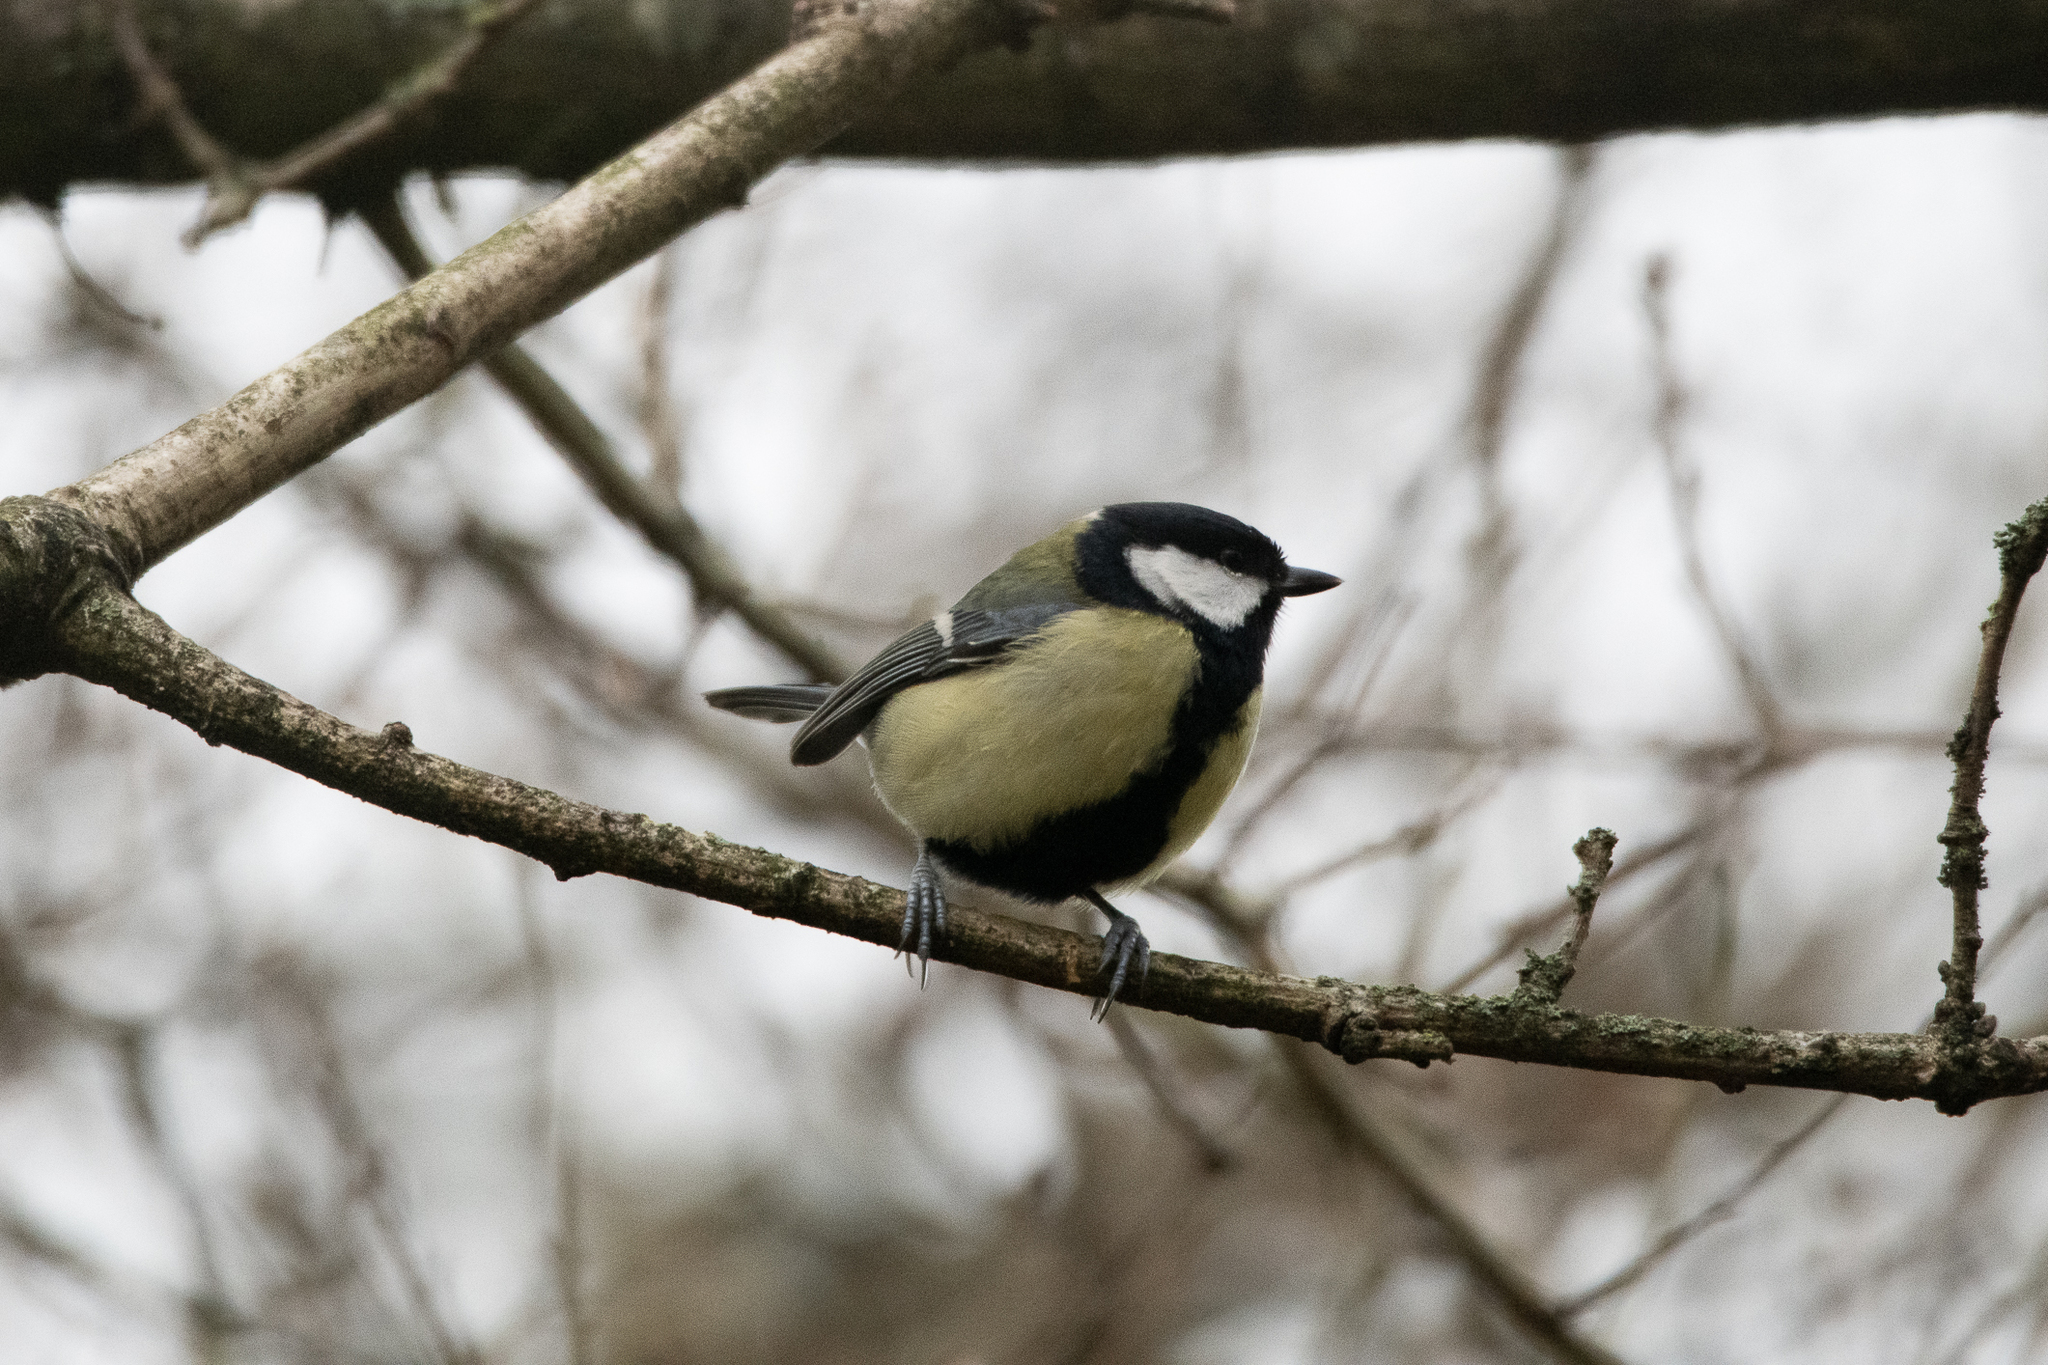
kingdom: Animalia
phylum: Chordata
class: Aves
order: Passeriformes
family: Paridae
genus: Parus
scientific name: Parus major
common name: Great tit
